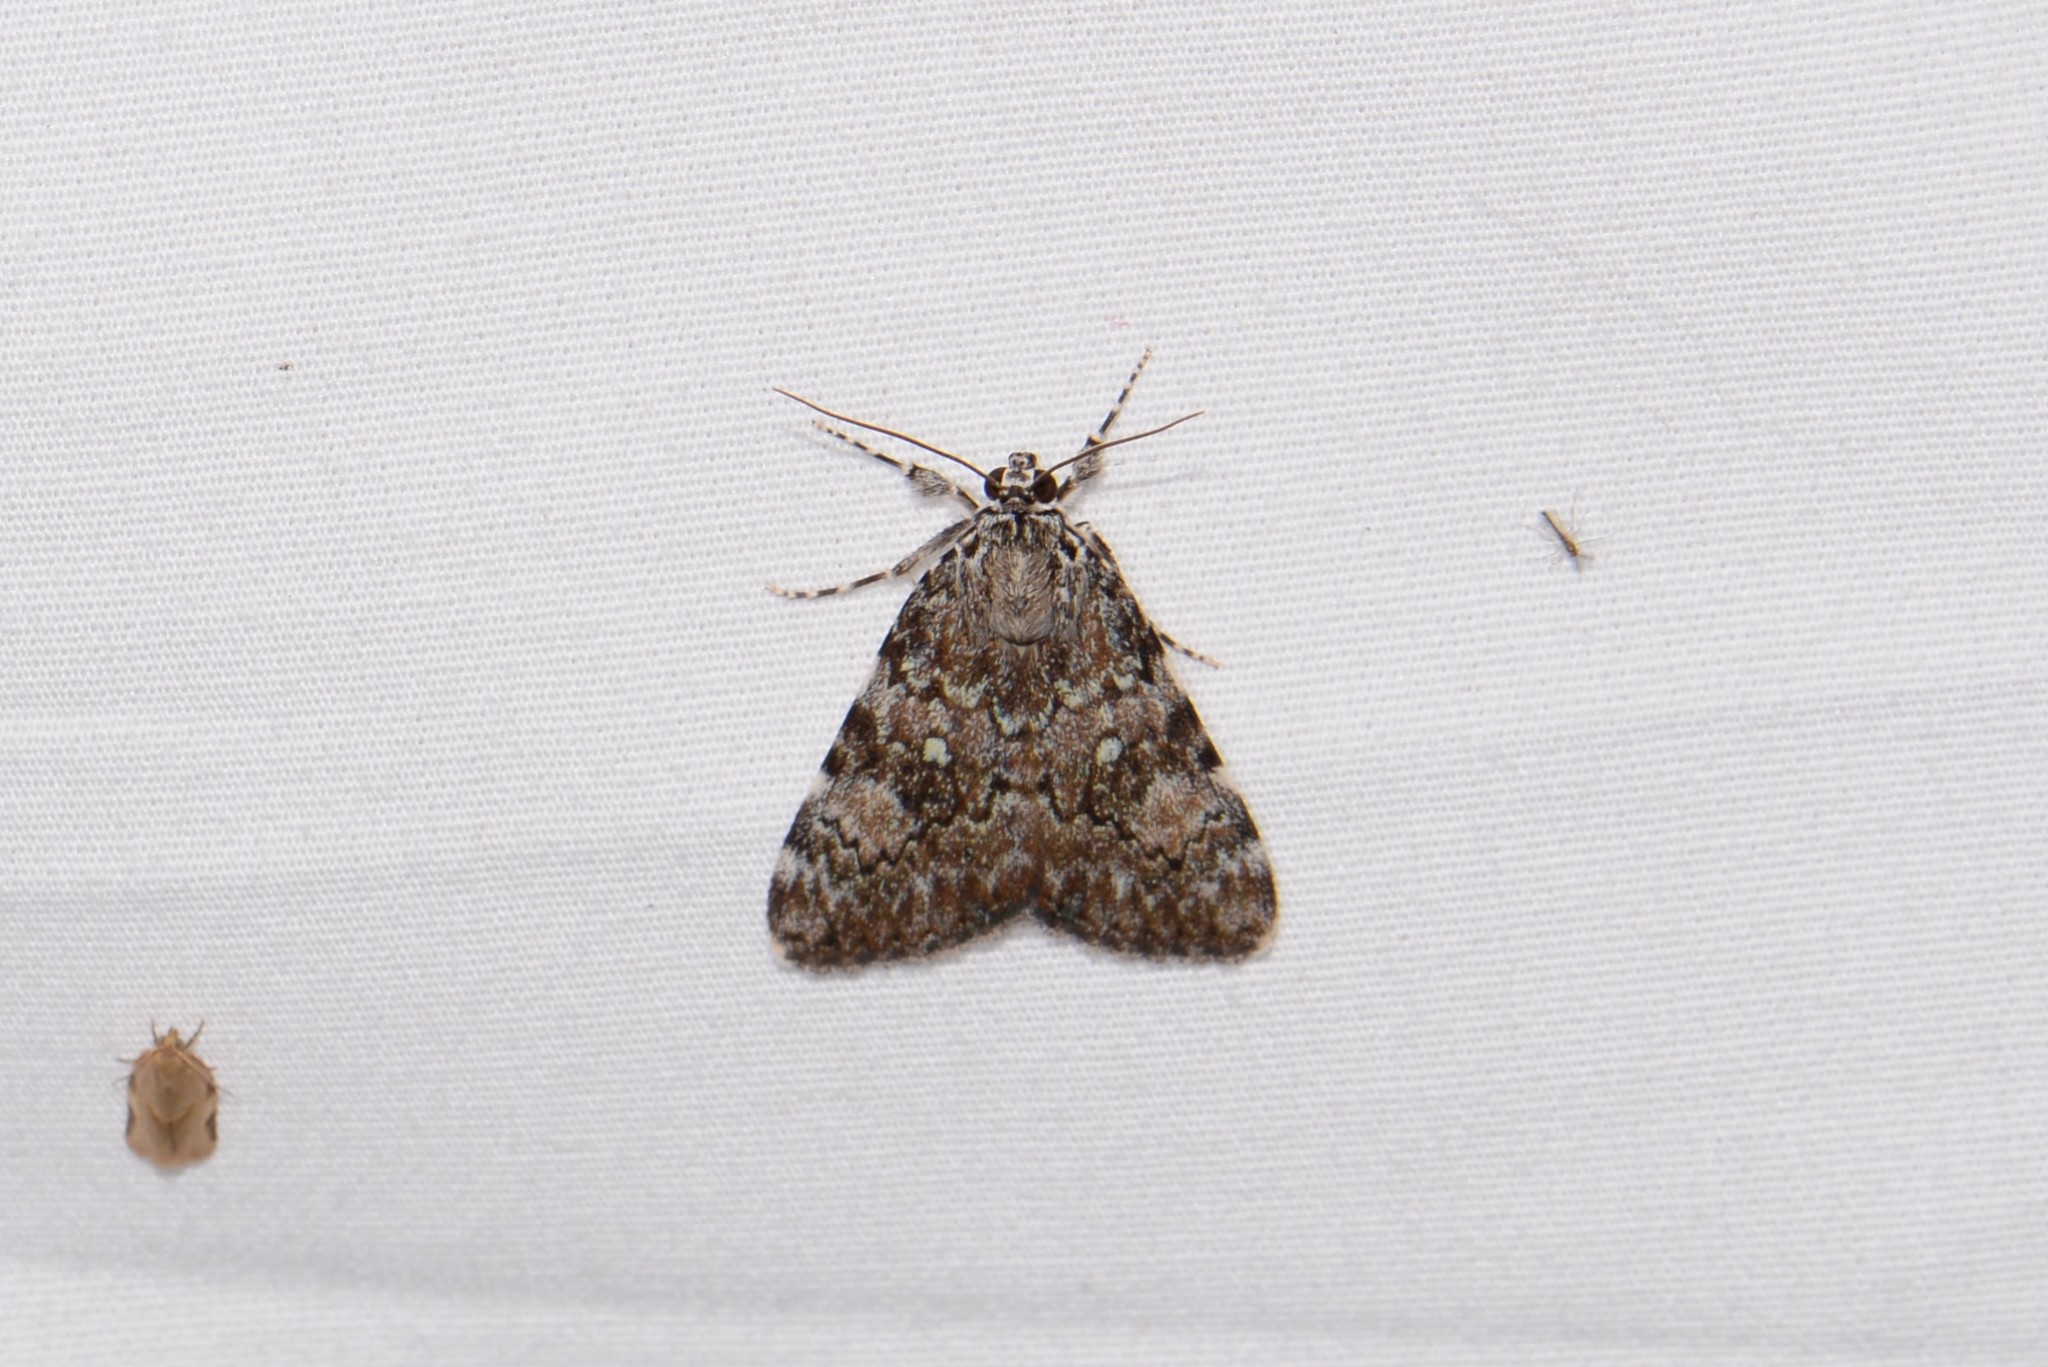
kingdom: Animalia
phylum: Arthropoda
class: Insecta
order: Lepidoptera
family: Erebidae
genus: Catocala
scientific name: Catocala lineella
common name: Little lined underwing
